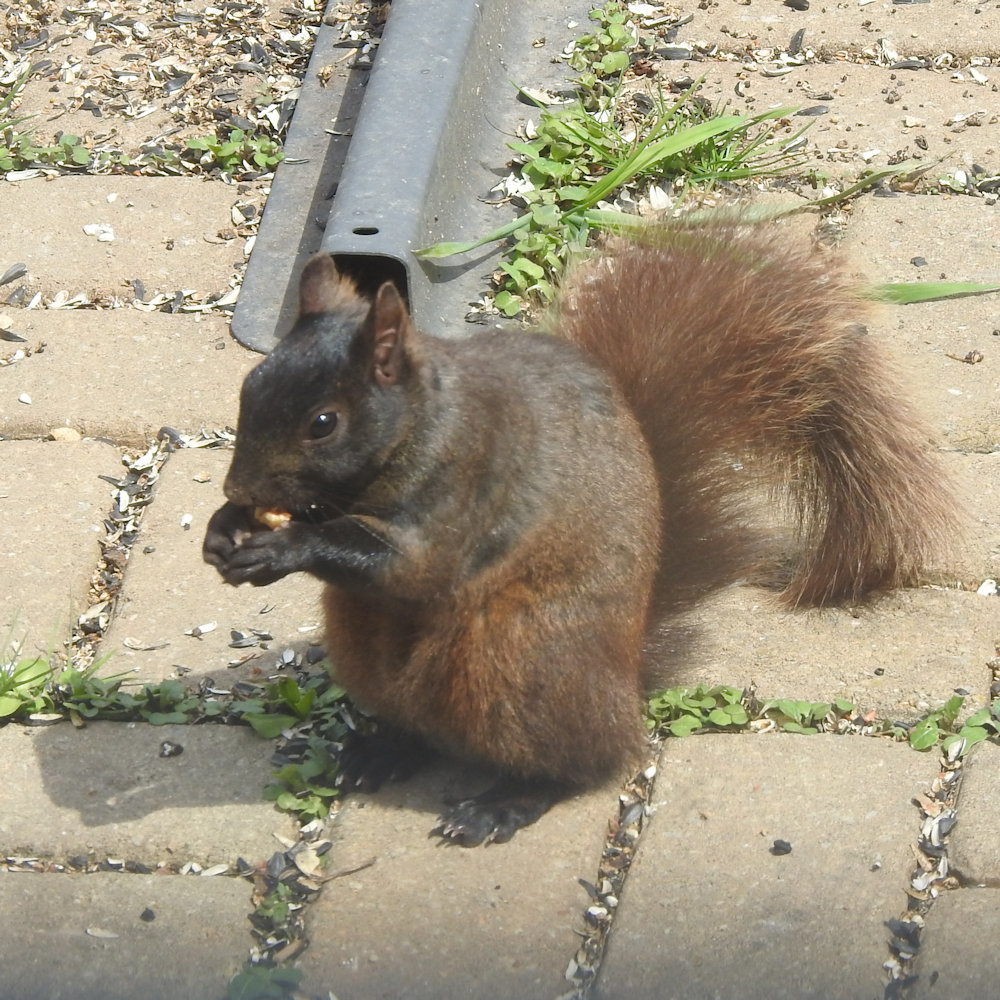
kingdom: Animalia
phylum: Chordata
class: Mammalia
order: Rodentia
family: Sciuridae
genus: Sciurus
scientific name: Sciurus carolinensis
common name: Eastern gray squirrel
